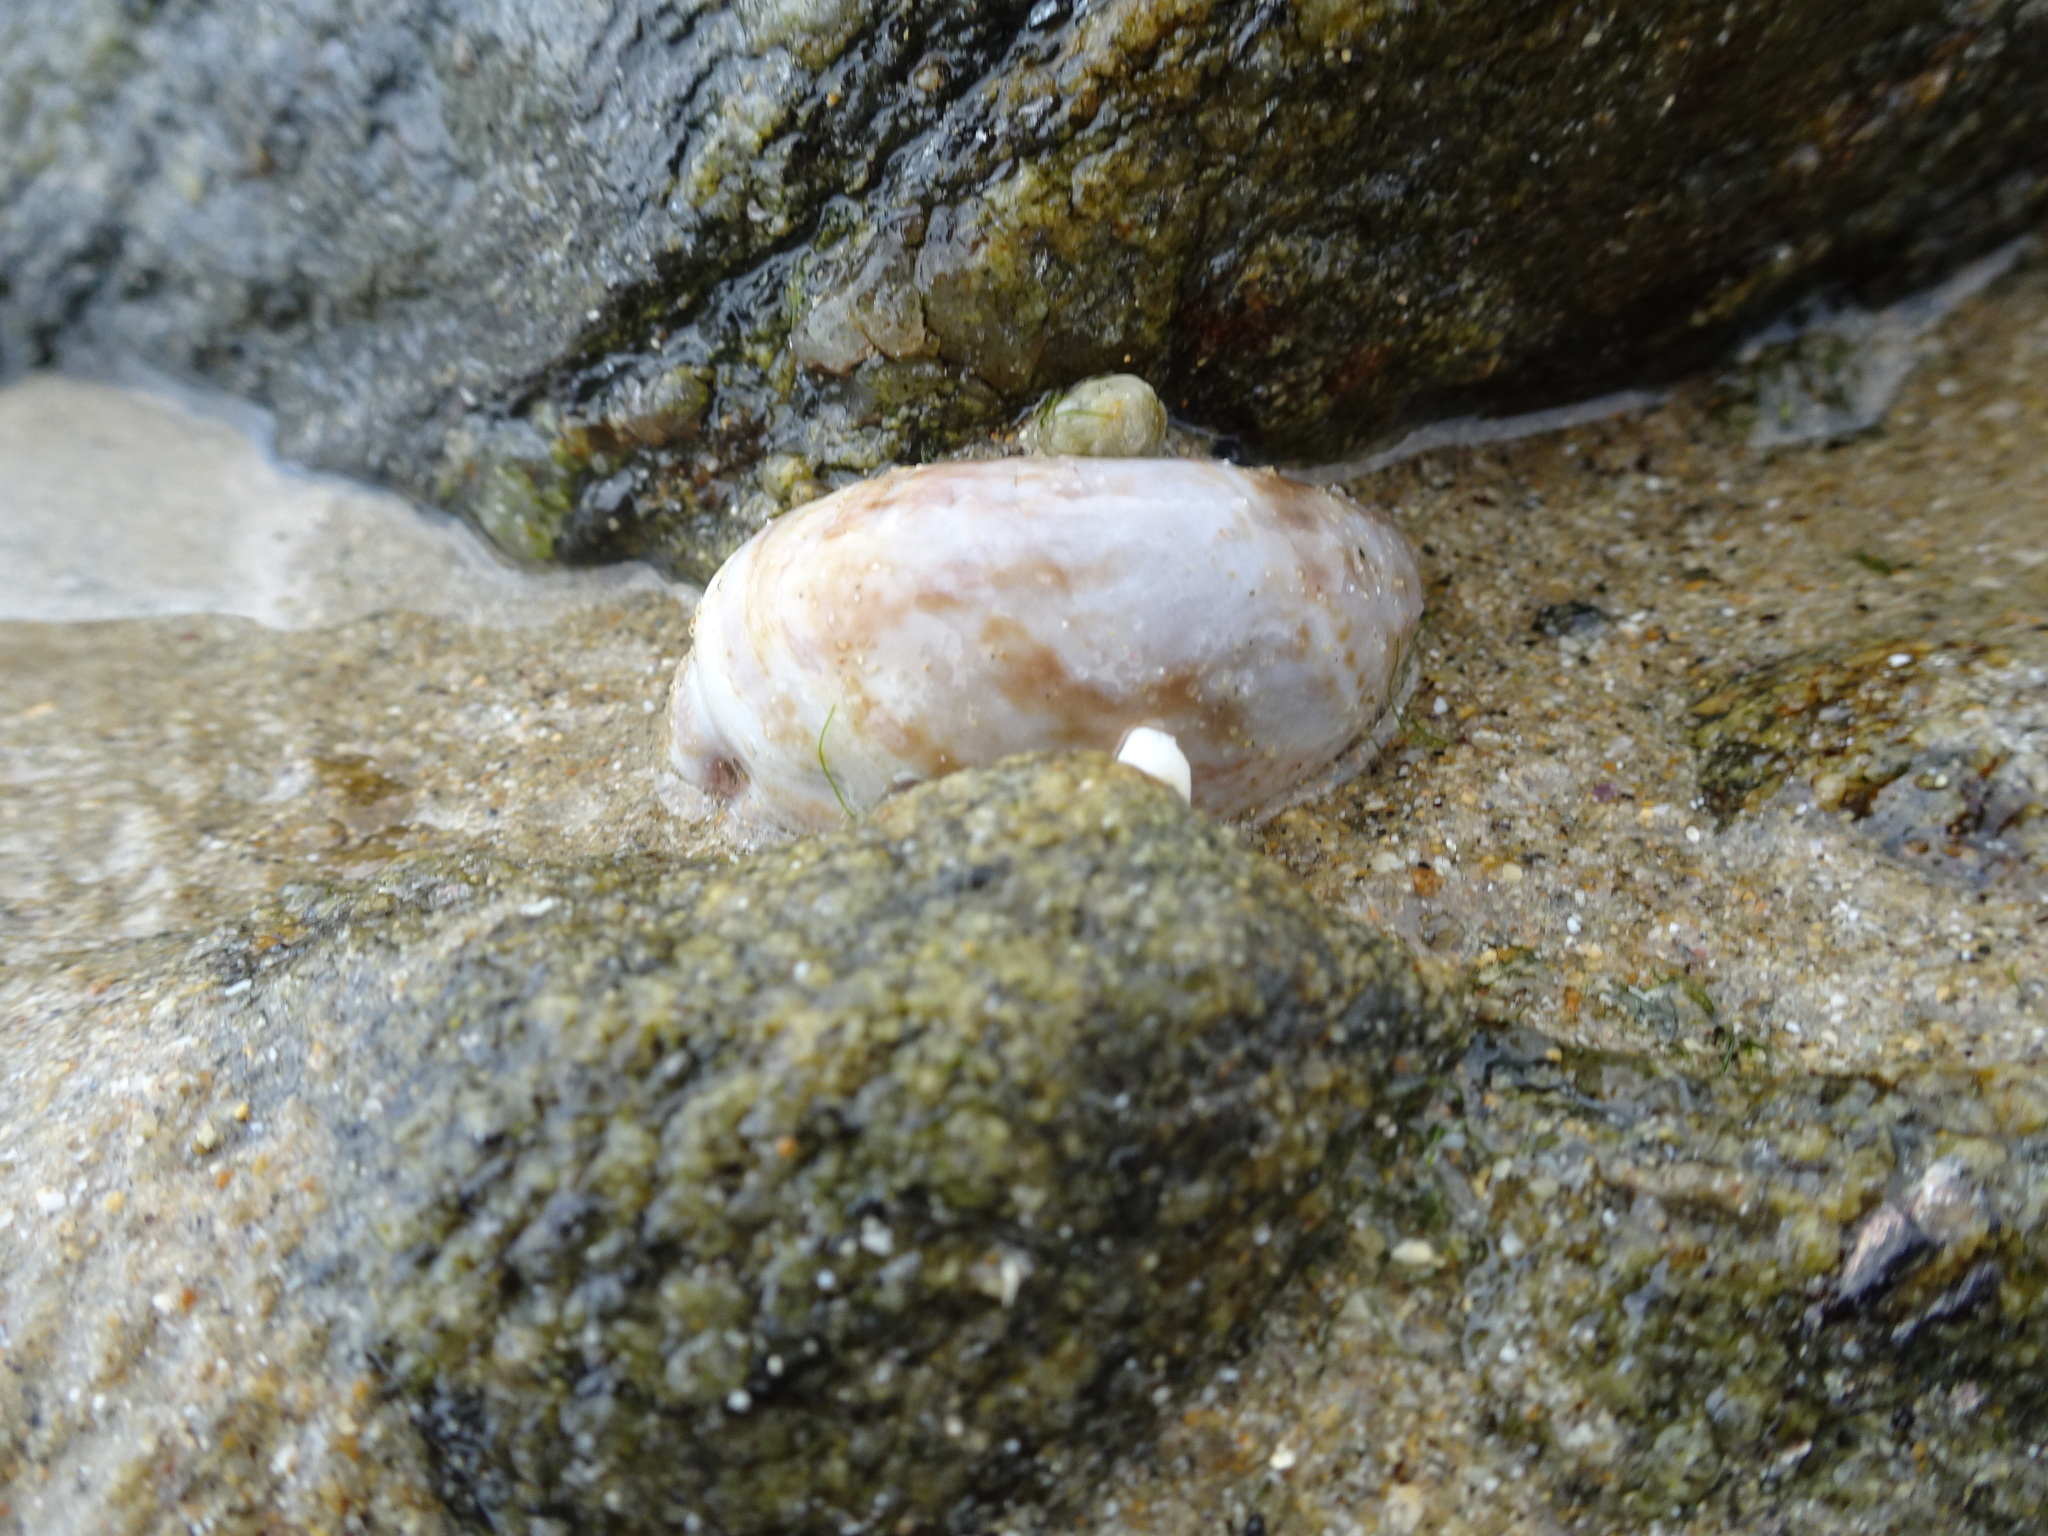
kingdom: Animalia
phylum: Mollusca
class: Gastropoda
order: Littorinimorpha
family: Calyptraeidae
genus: Crepidula
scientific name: Crepidula fornicata
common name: Slipper limpet
